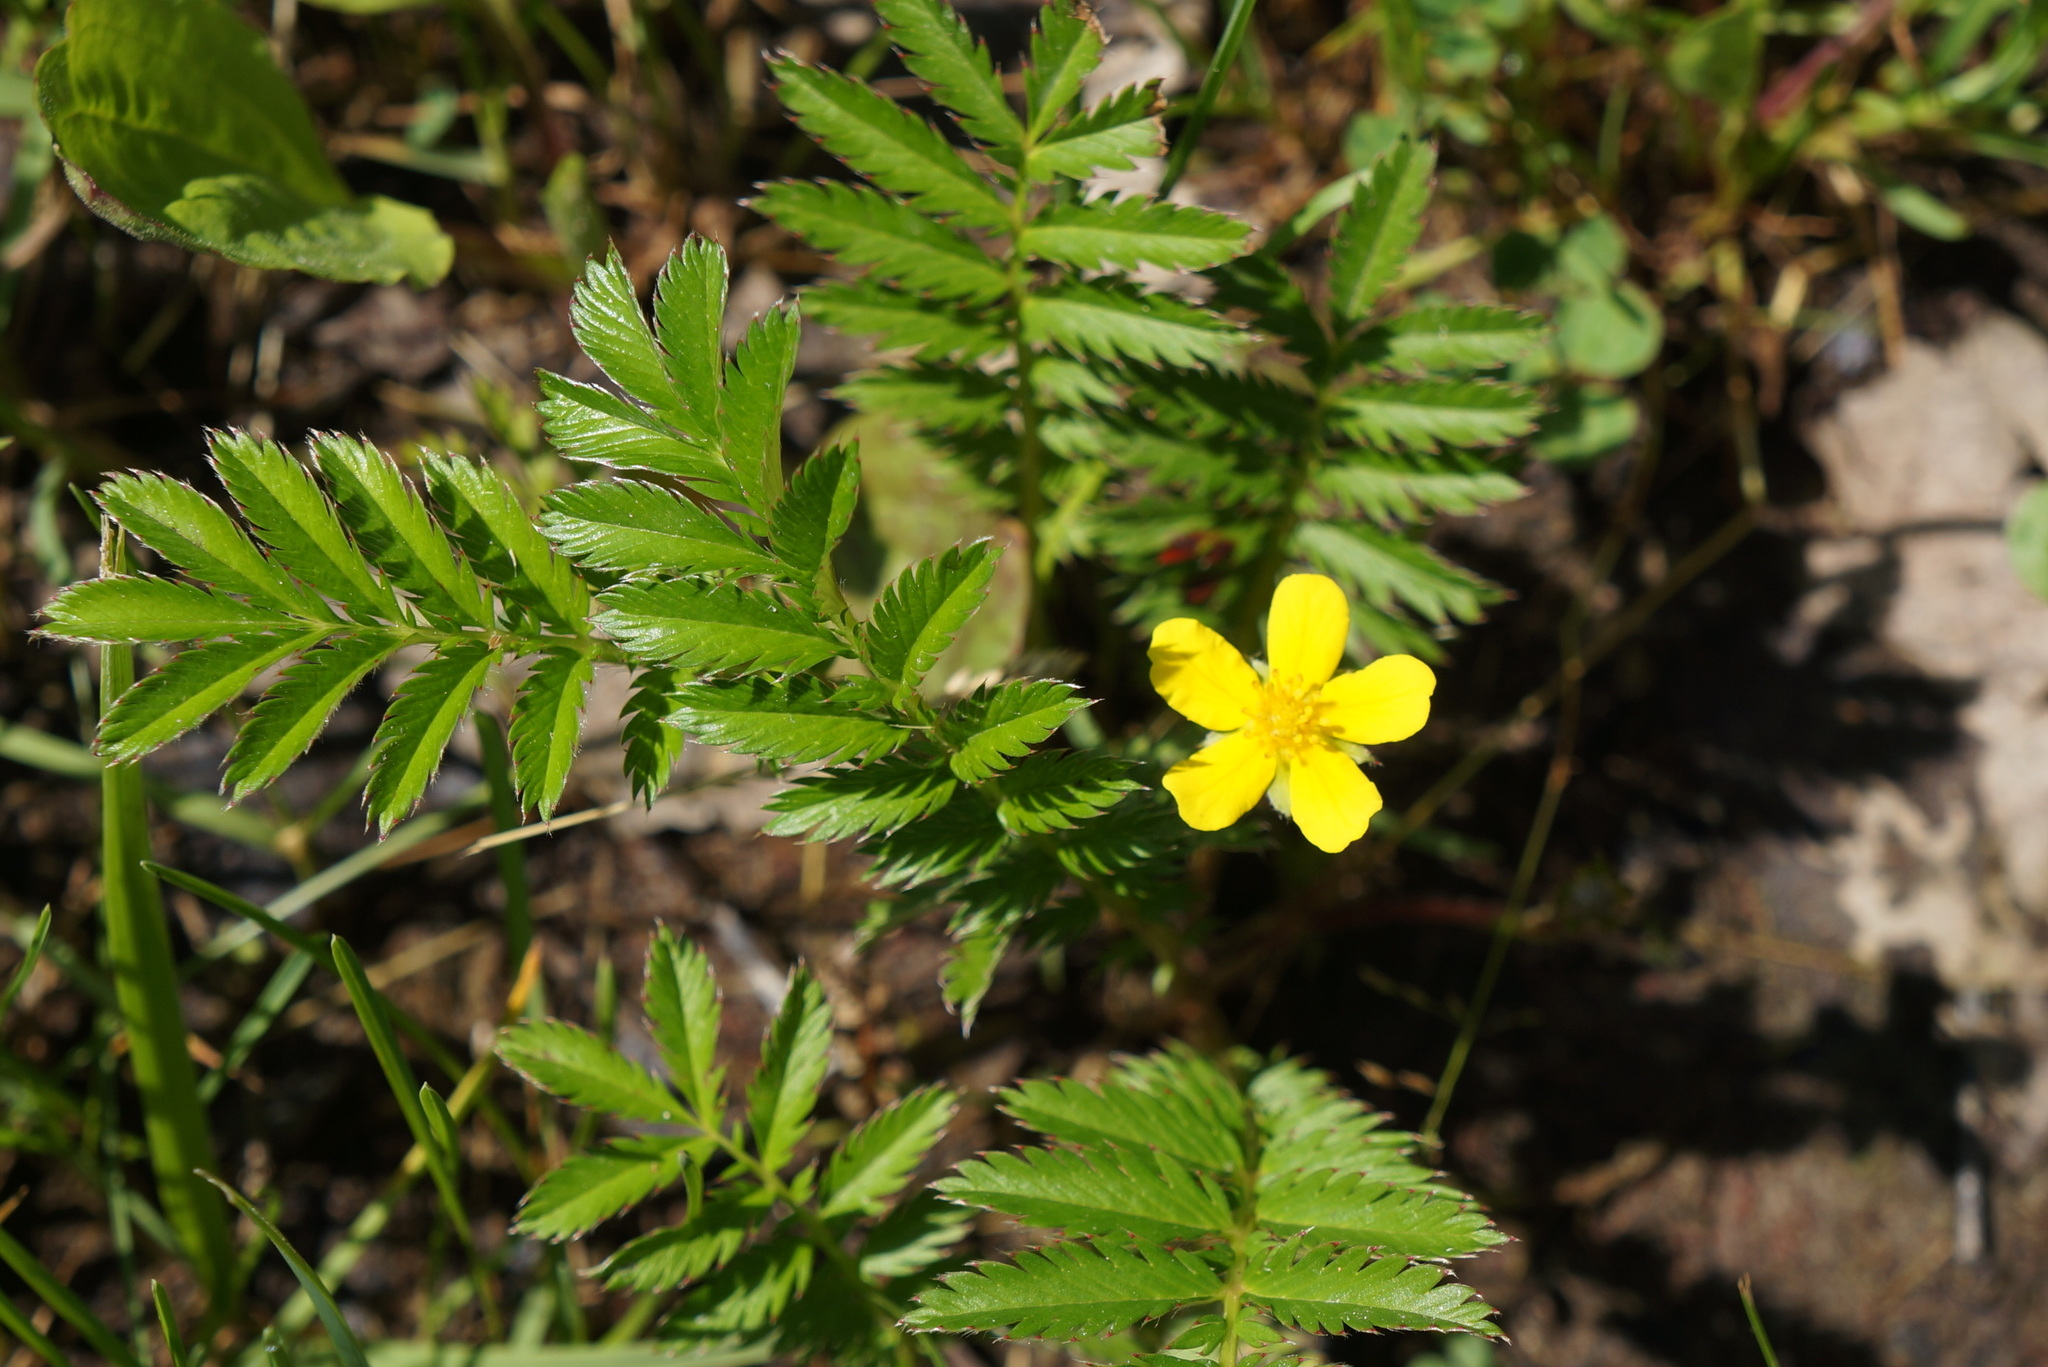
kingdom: Plantae
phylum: Tracheophyta
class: Magnoliopsida
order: Rosales
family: Rosaceae
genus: Argentina
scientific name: Argentina anserina
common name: Common silverweed
